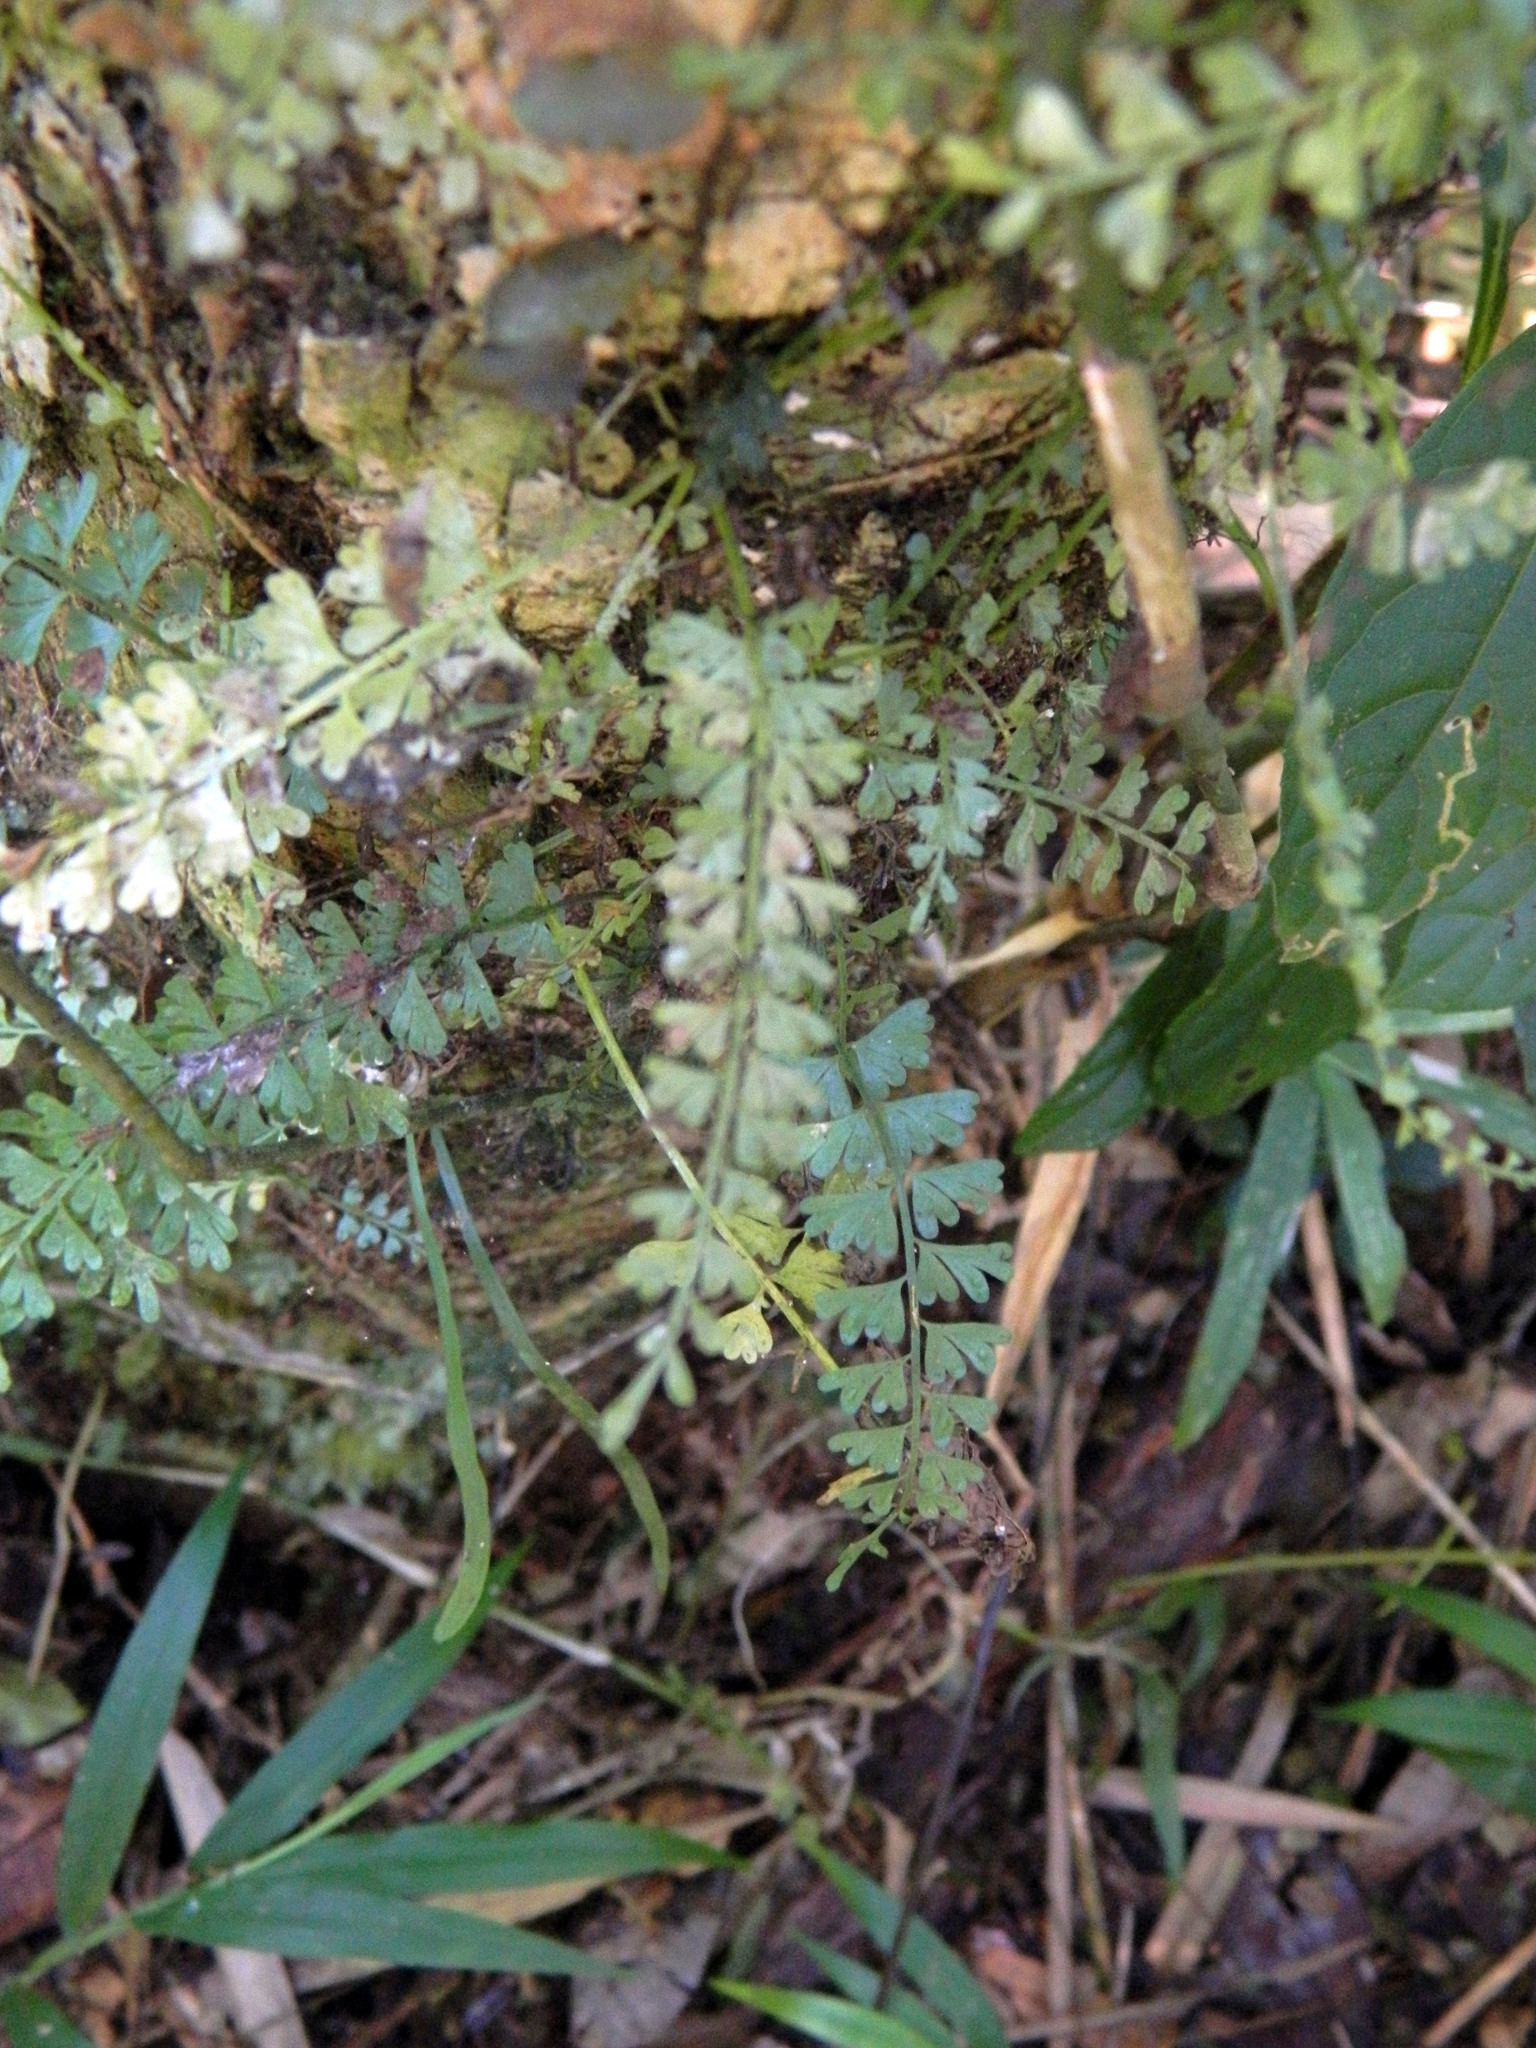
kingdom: Plantae
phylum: Tracheophyta
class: Polypodiopsida
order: Polypodiales
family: Aspleniaceae
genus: Asplenium
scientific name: Asplenium dregeanum
